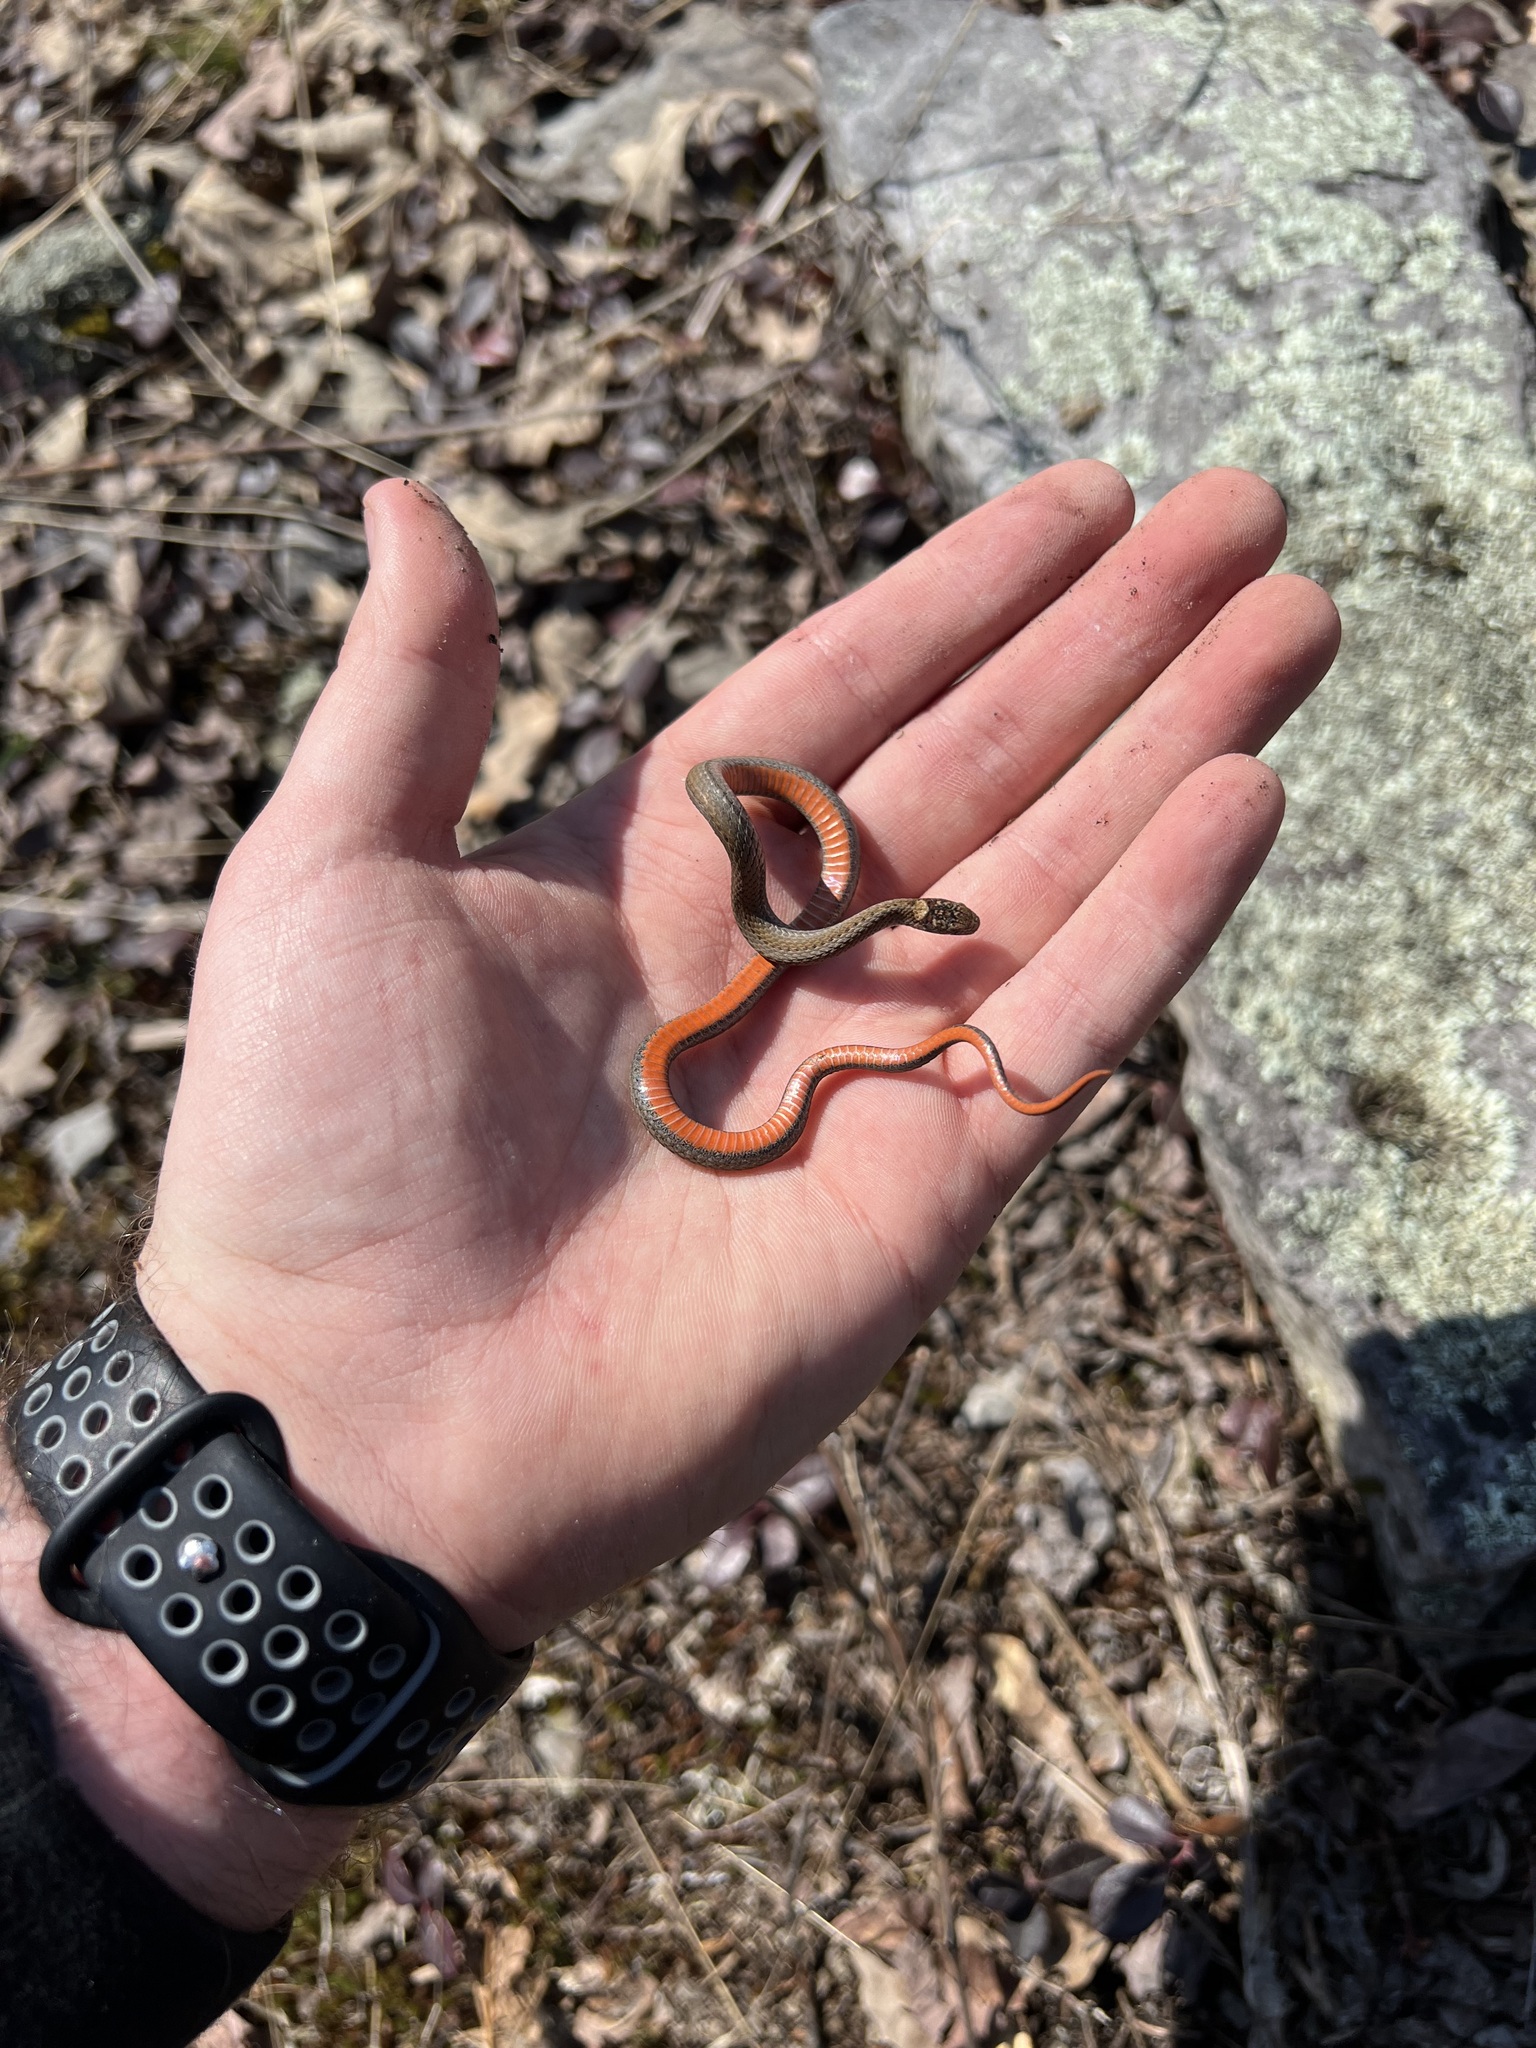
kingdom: Animalia
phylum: Chordata
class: Squamata
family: Colubridae
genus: Storeria
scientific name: Storeria occipitomaculata
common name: Redbelly snake
